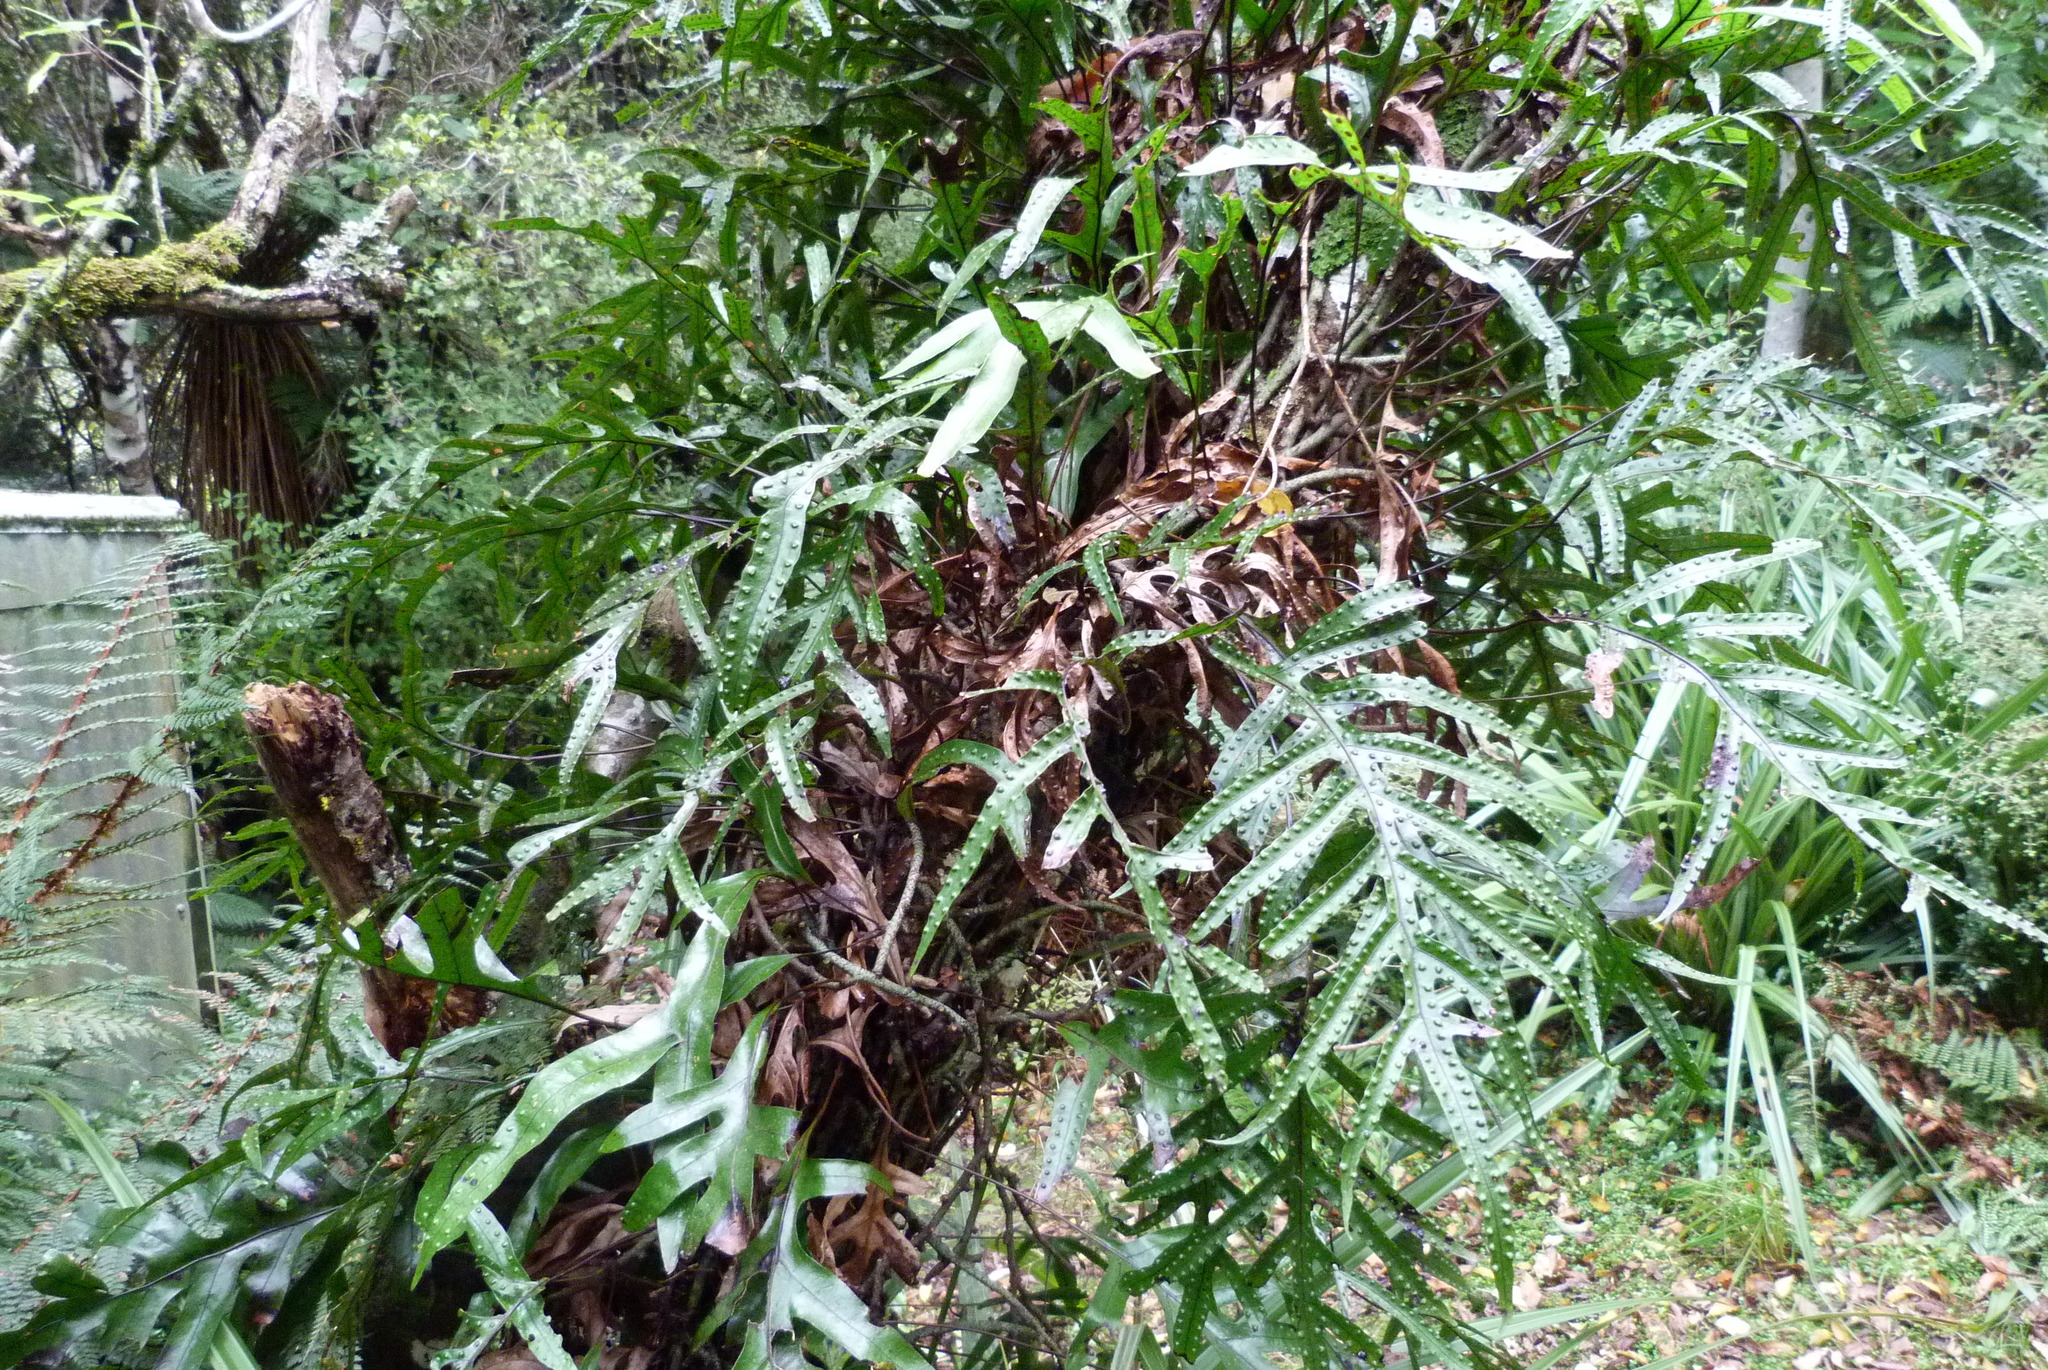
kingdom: Plantae
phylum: Tracheophyta
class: Polypodiopsida
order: Polypodiales
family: Polypodiaceae
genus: Lecanopteris
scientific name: Lecanopteris pustulata
